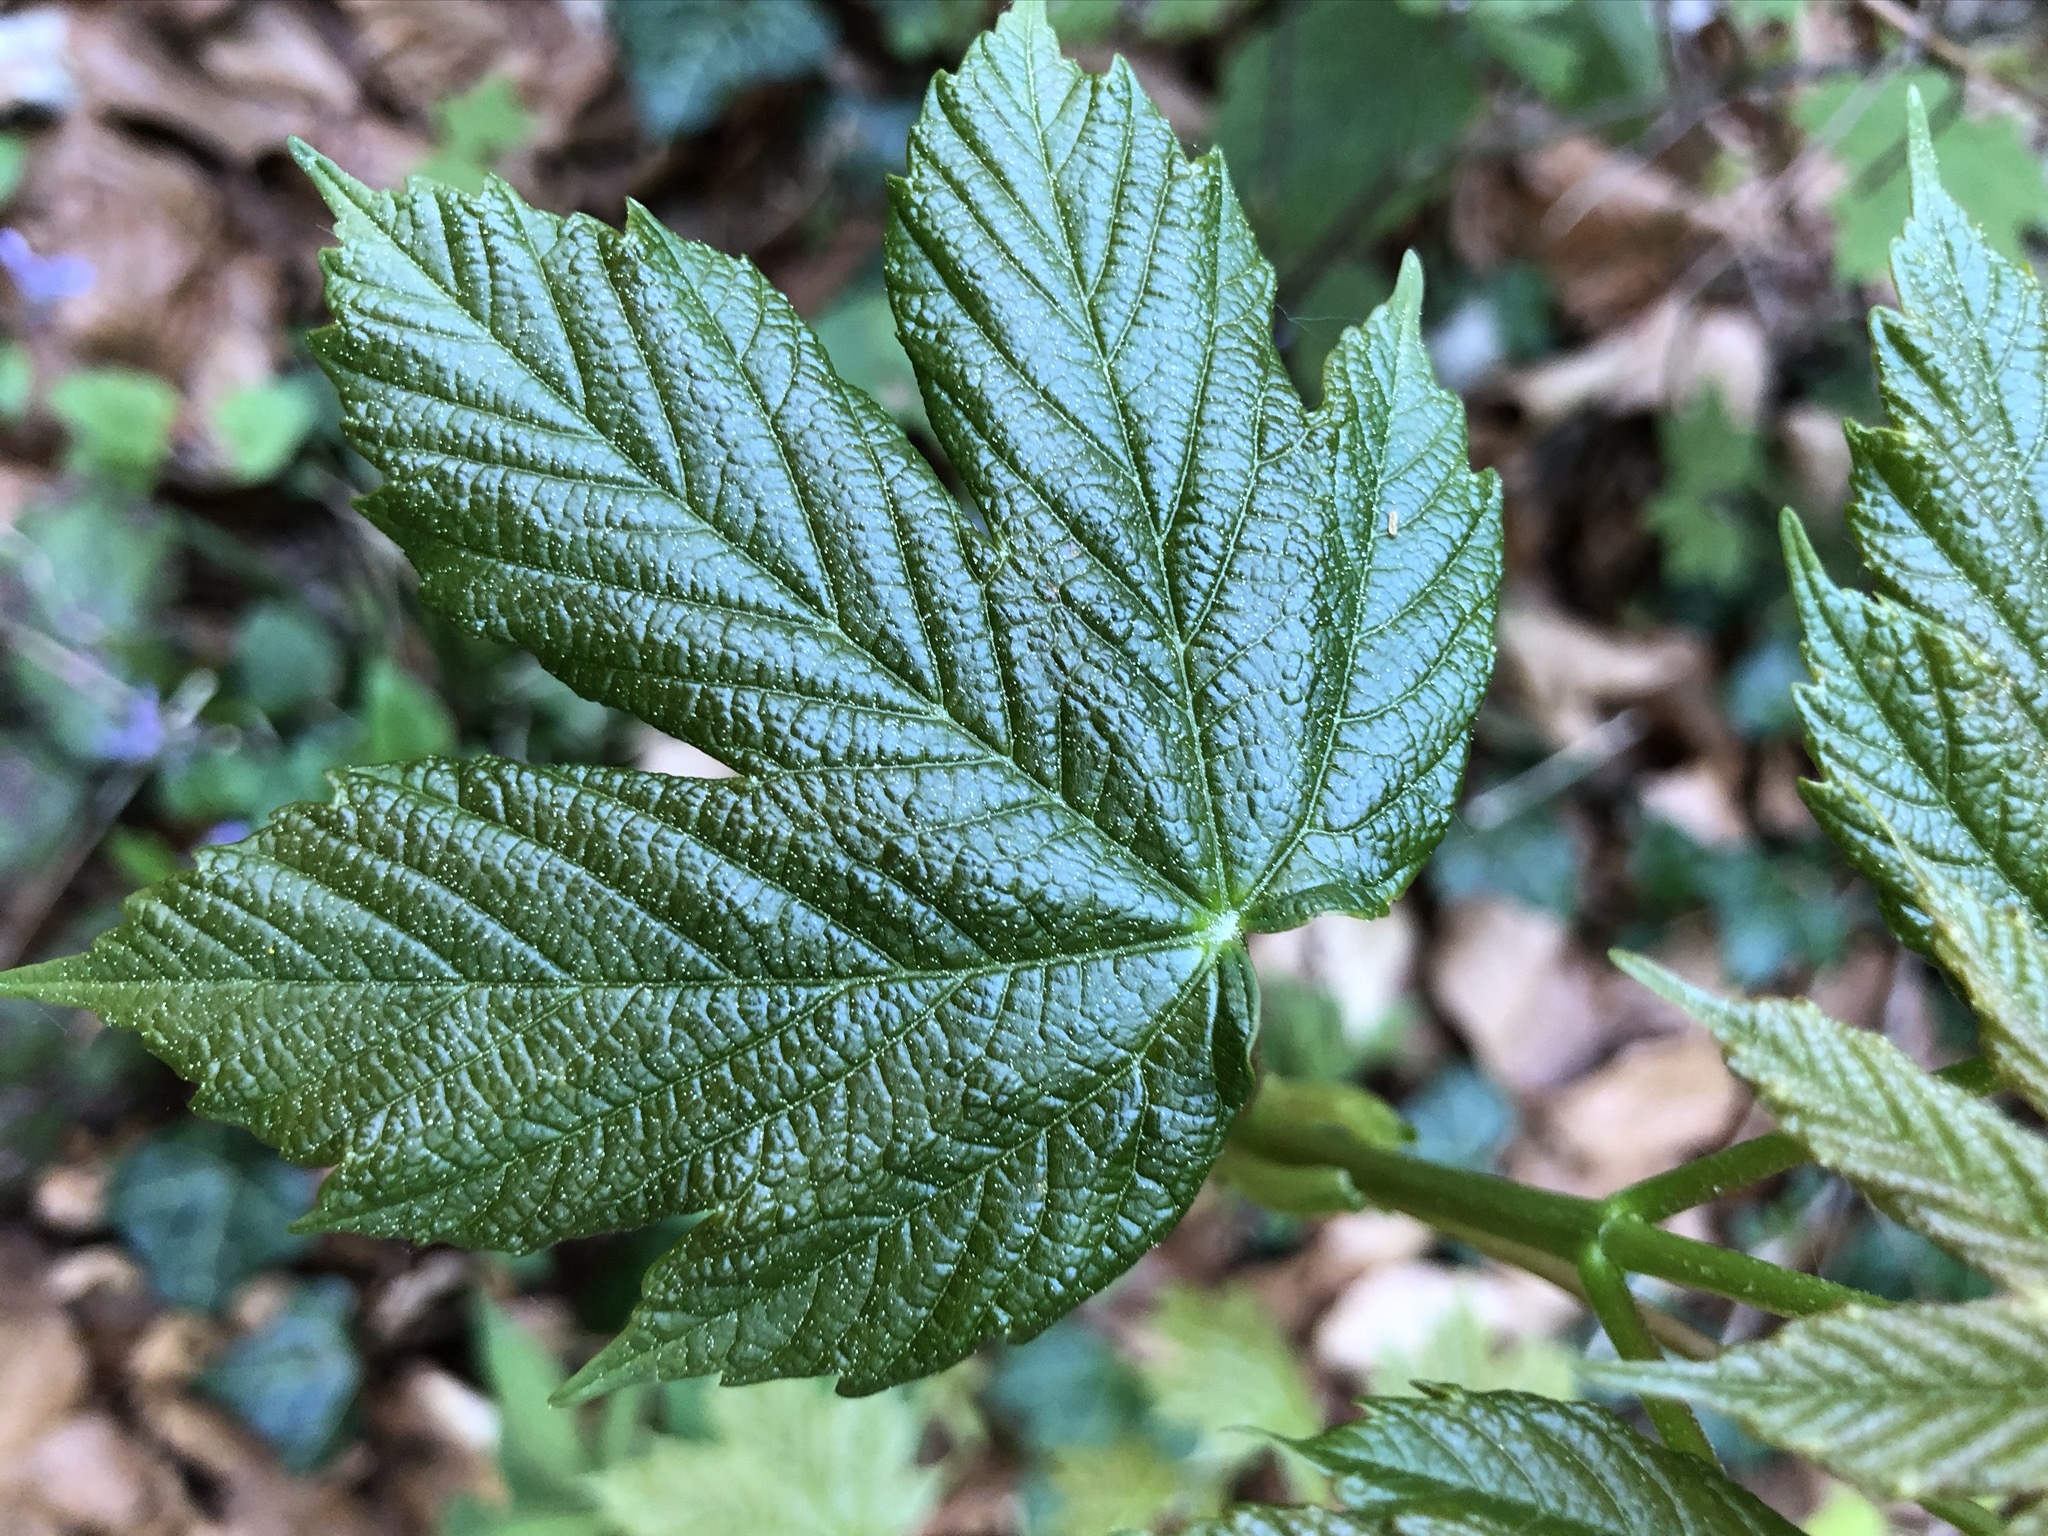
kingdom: Plantae
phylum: Tracheophyta
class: Magnoliopsida
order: Sapindales
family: Sapindaceae
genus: Acer
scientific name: Acer pseudoplatanus
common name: Sycamore
